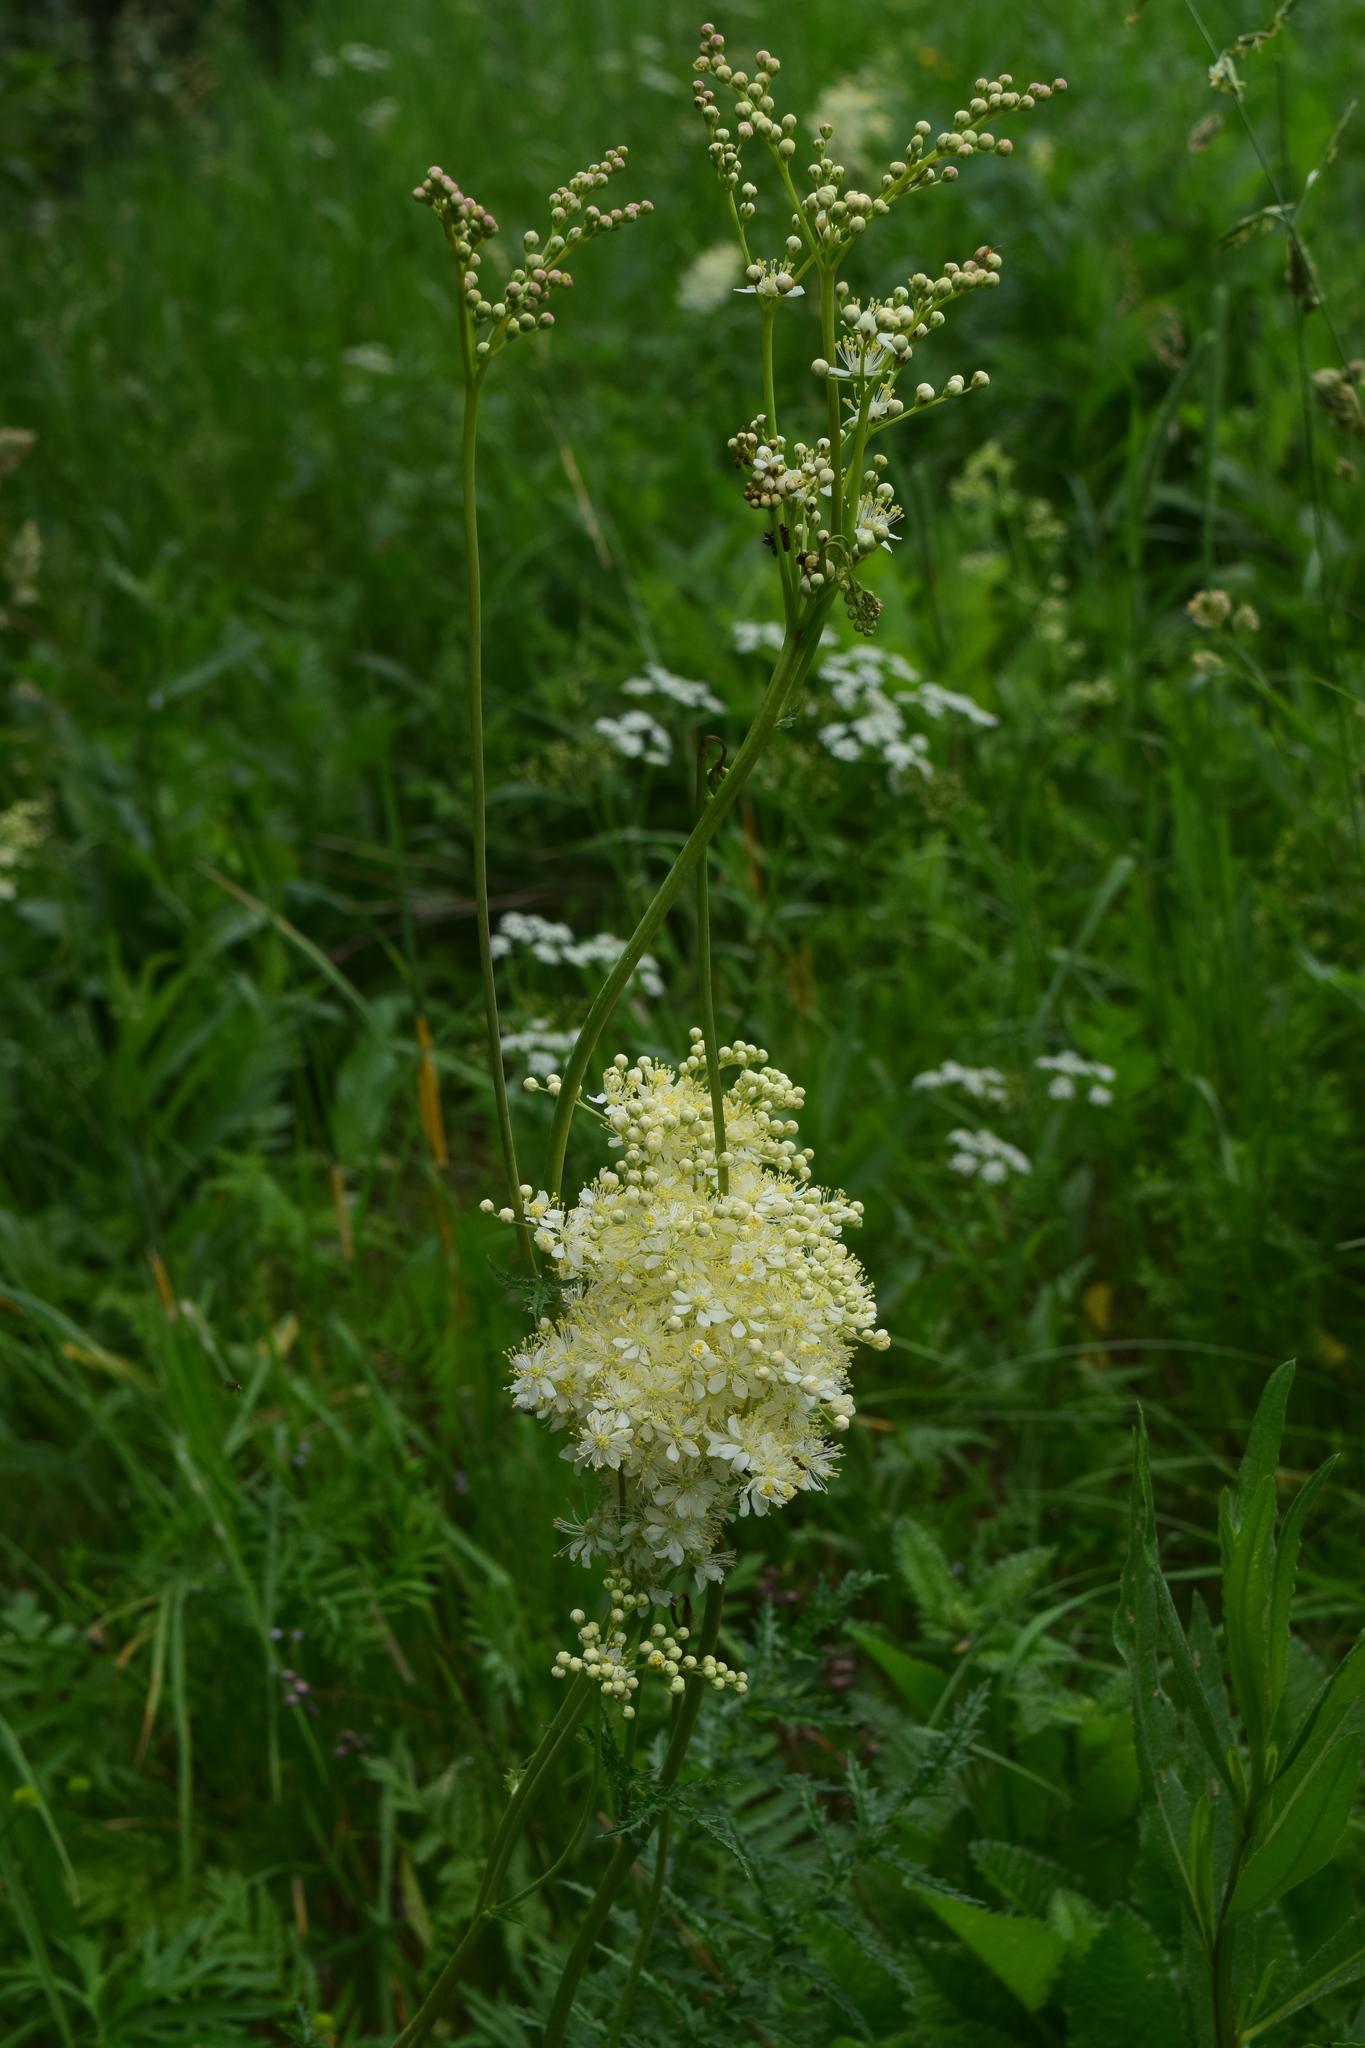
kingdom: Plantae
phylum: Tracheophyta
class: Magnoliopsida
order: Rosales
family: Rosaceae
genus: Filipendula
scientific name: Filipendula vulgaris
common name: Dropwort
